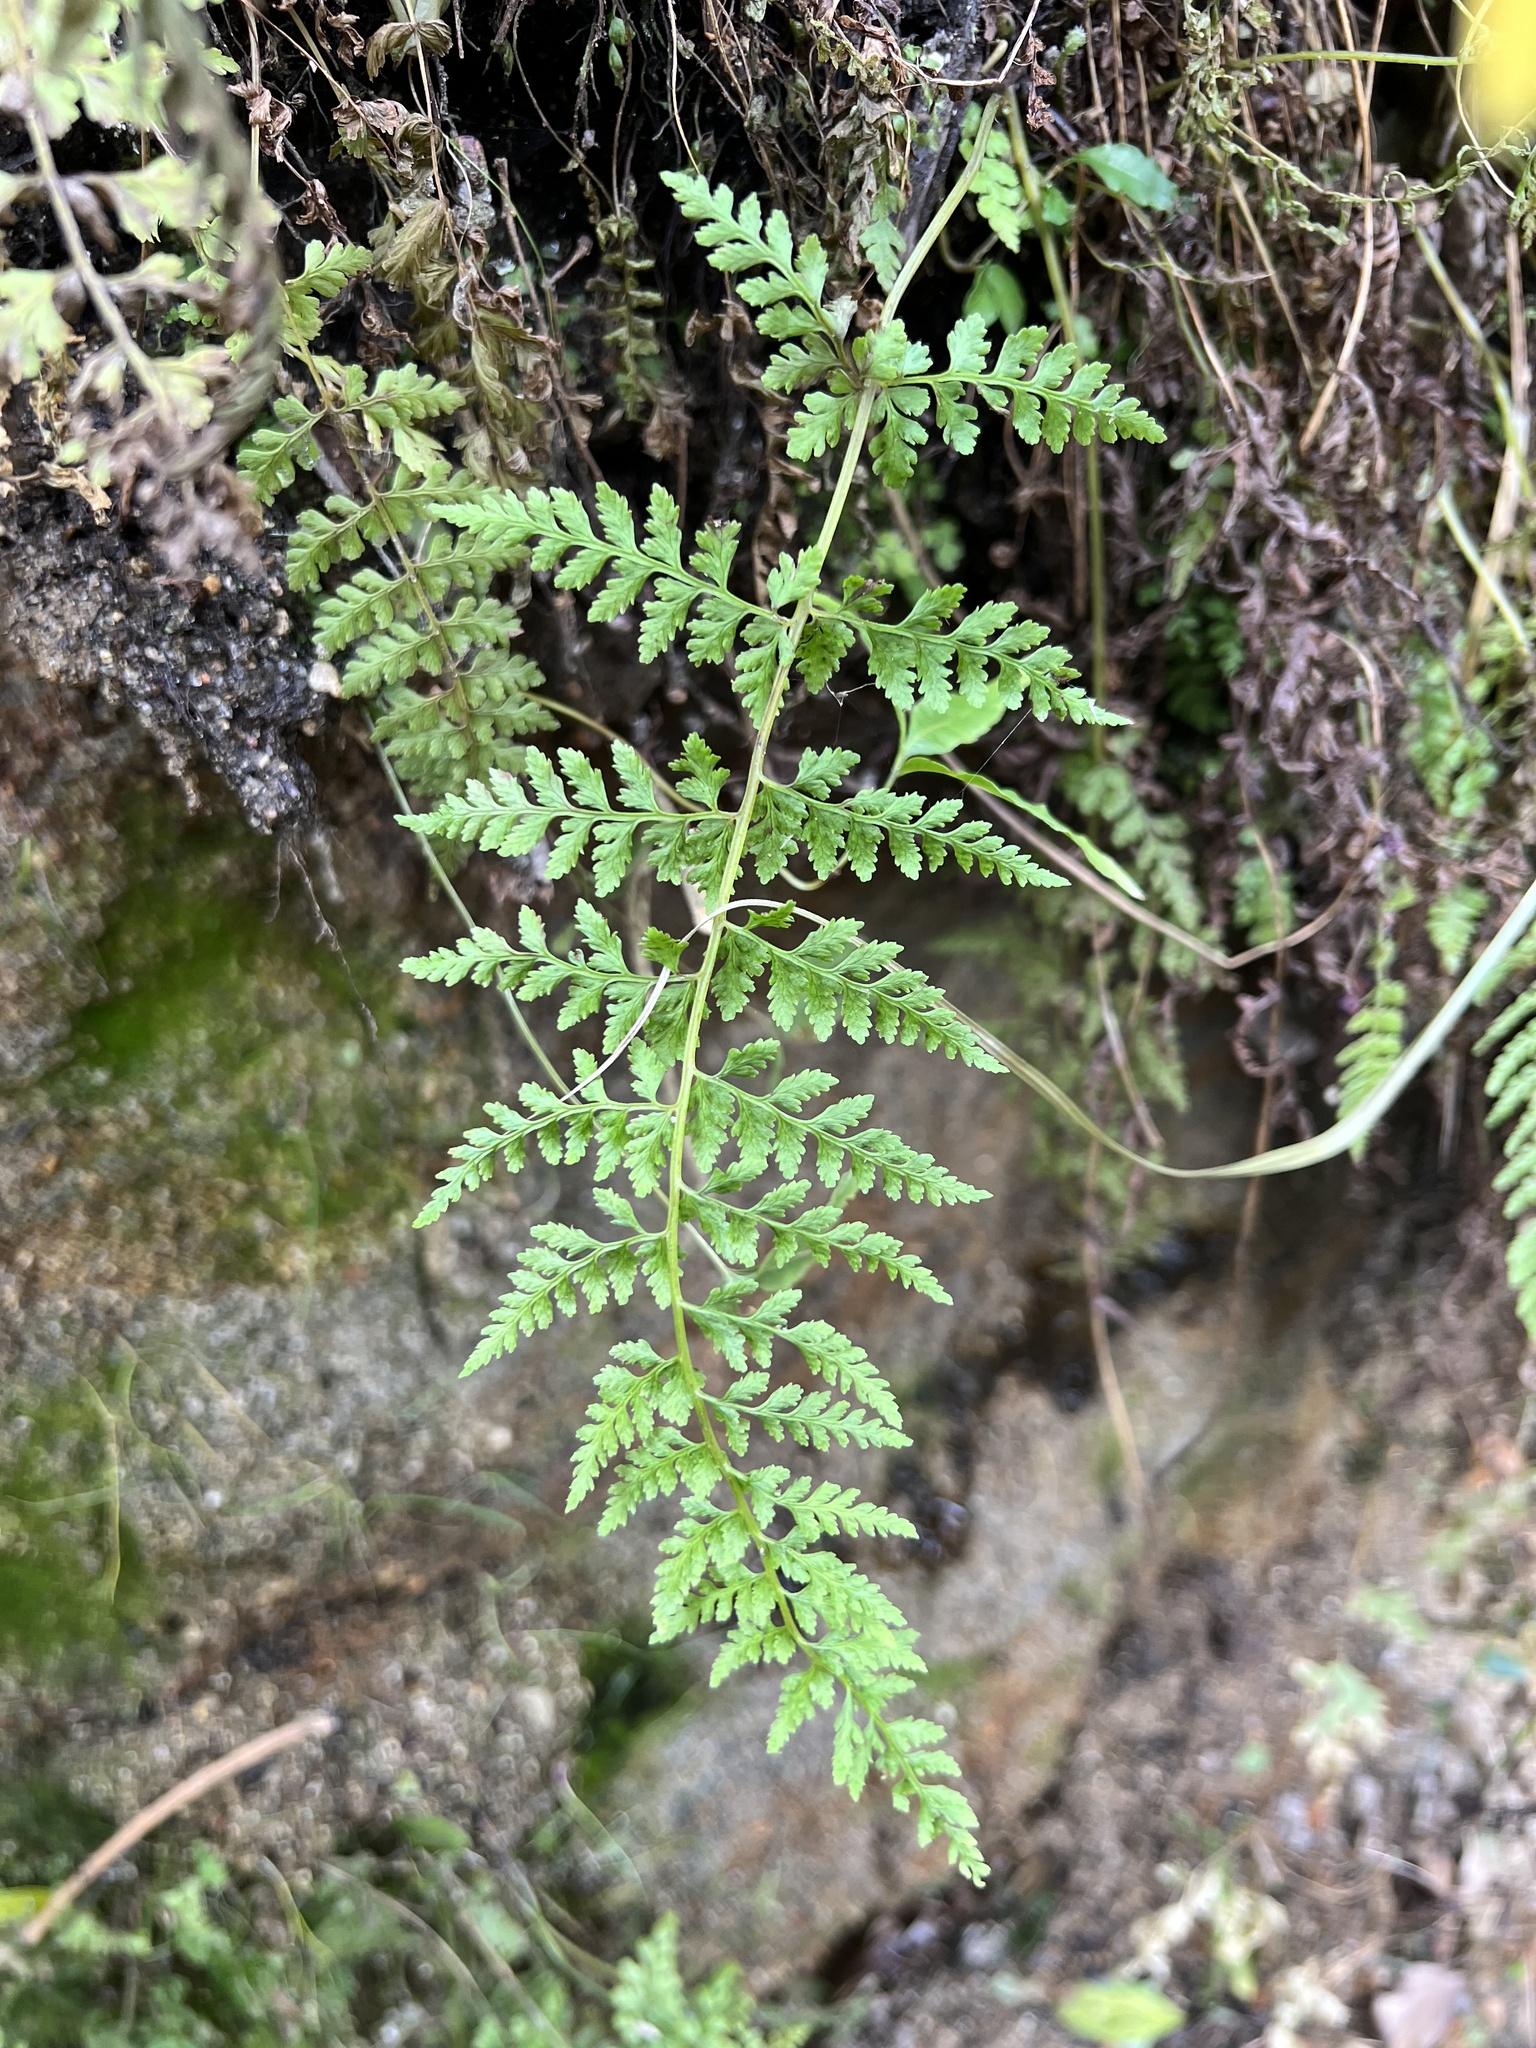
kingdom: Plantae
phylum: Tracheophyta
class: Polypodiopsida
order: Polypodiales
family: Cystopteridaceae
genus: Cystopteris
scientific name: Cystopteris fragilis
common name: Brittle bladder fern
